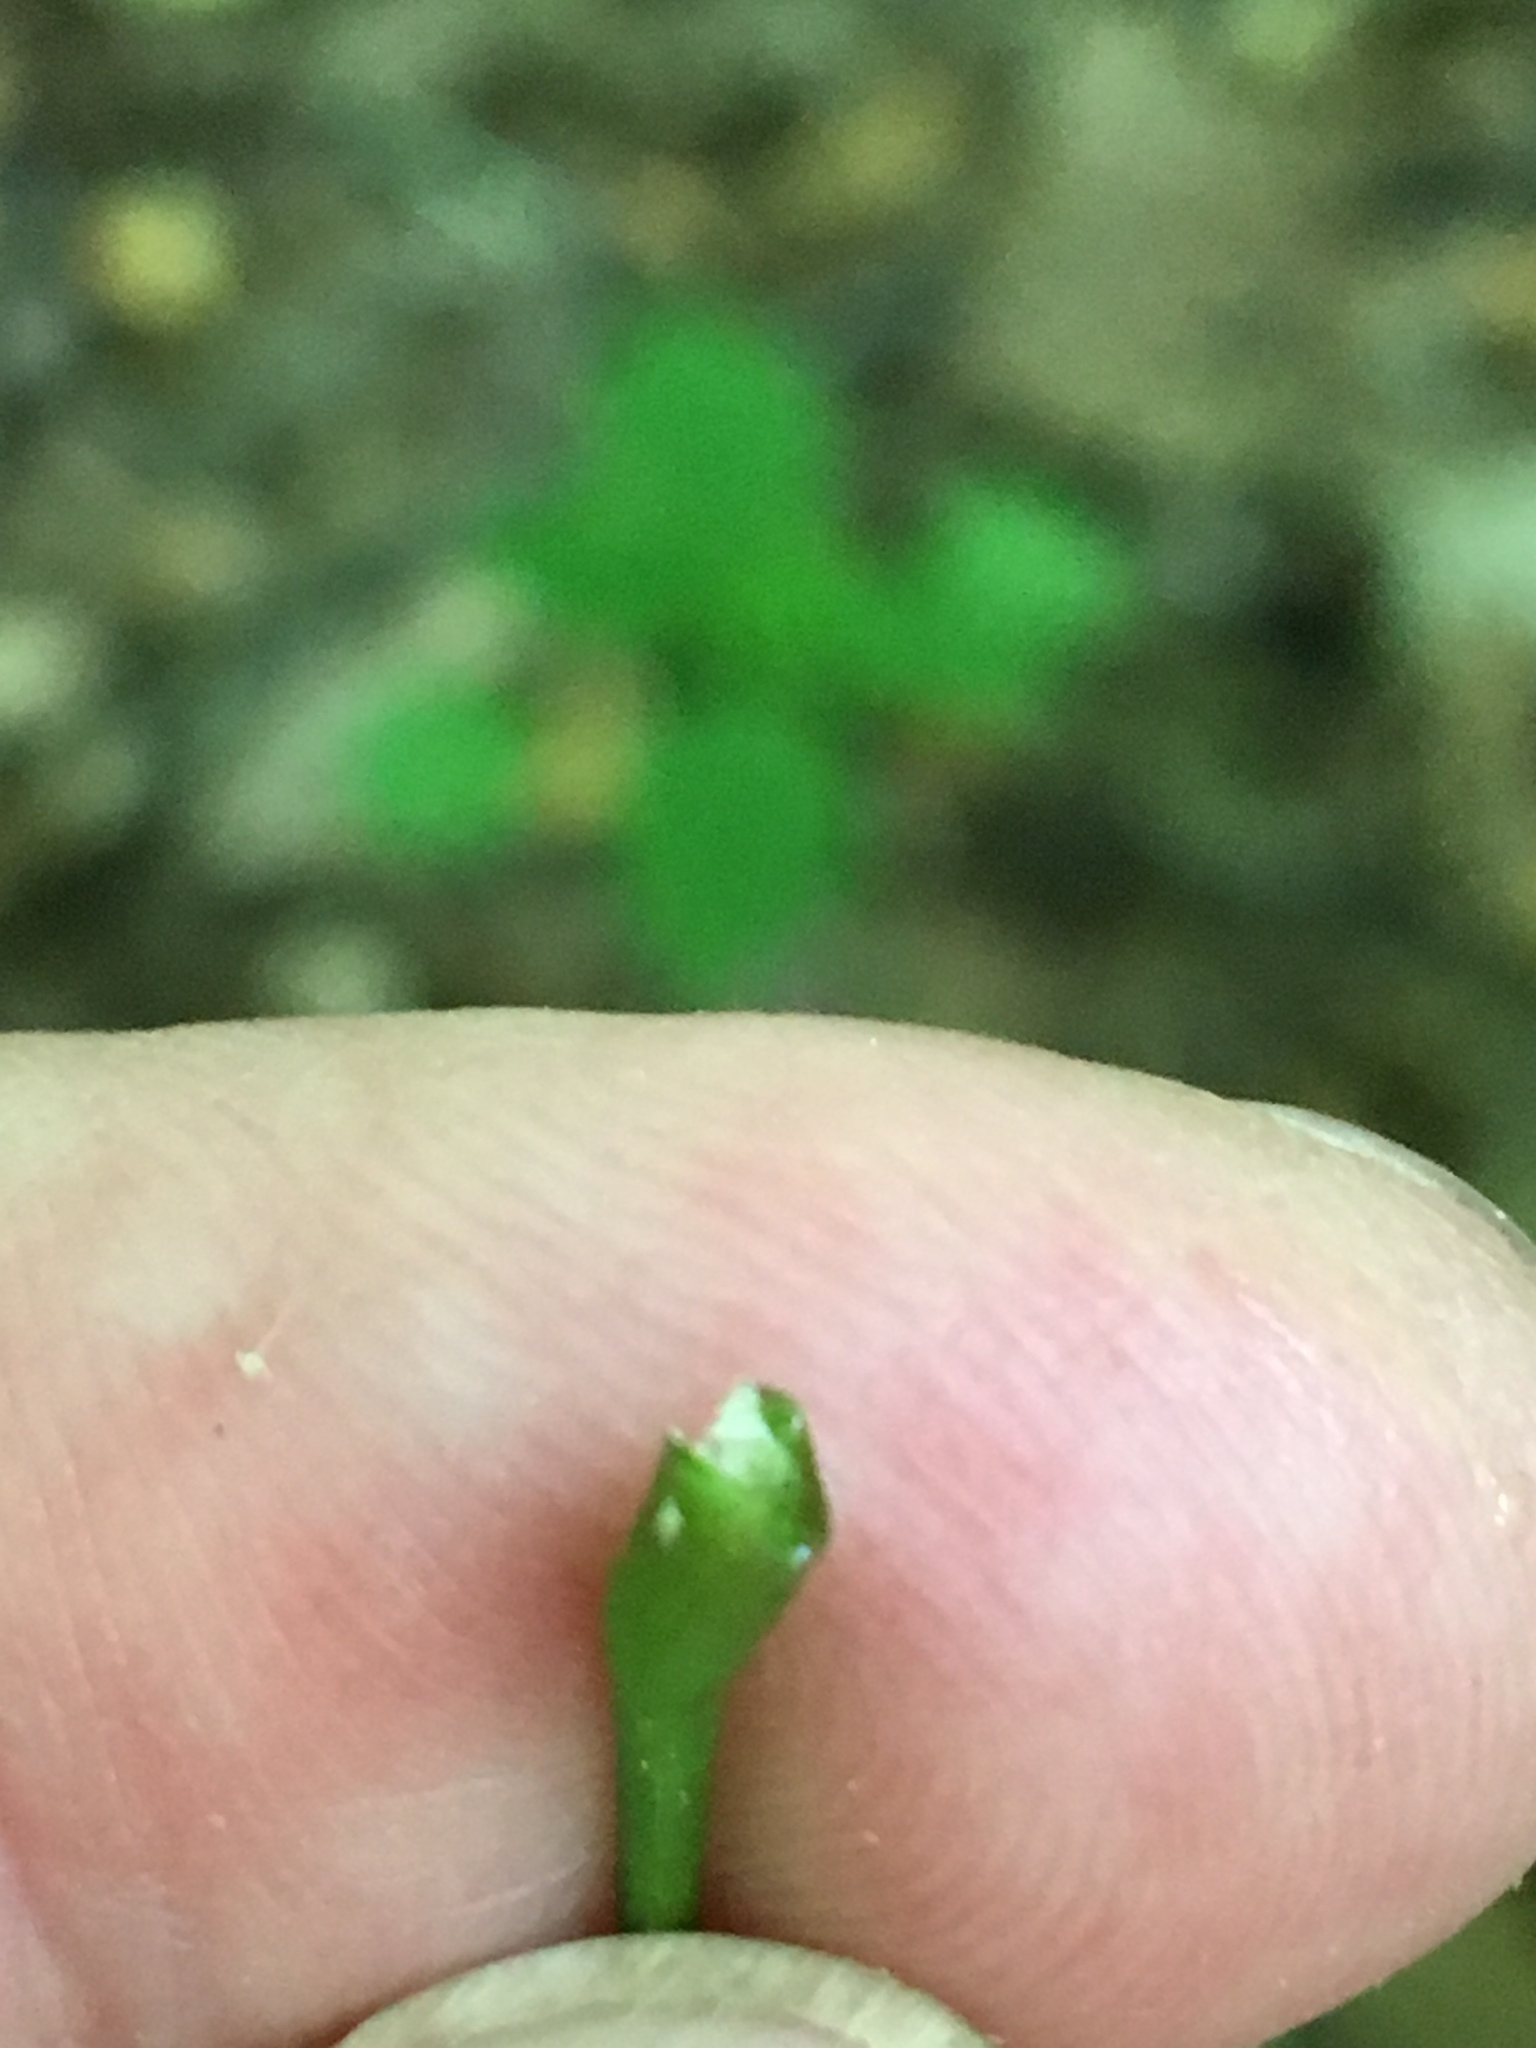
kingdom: Plantae
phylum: Tracheophyta
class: Magnoliopsida
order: Sapindales
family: Sapindaceae
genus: Acer
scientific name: Acer saccharum
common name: Sugar maple
